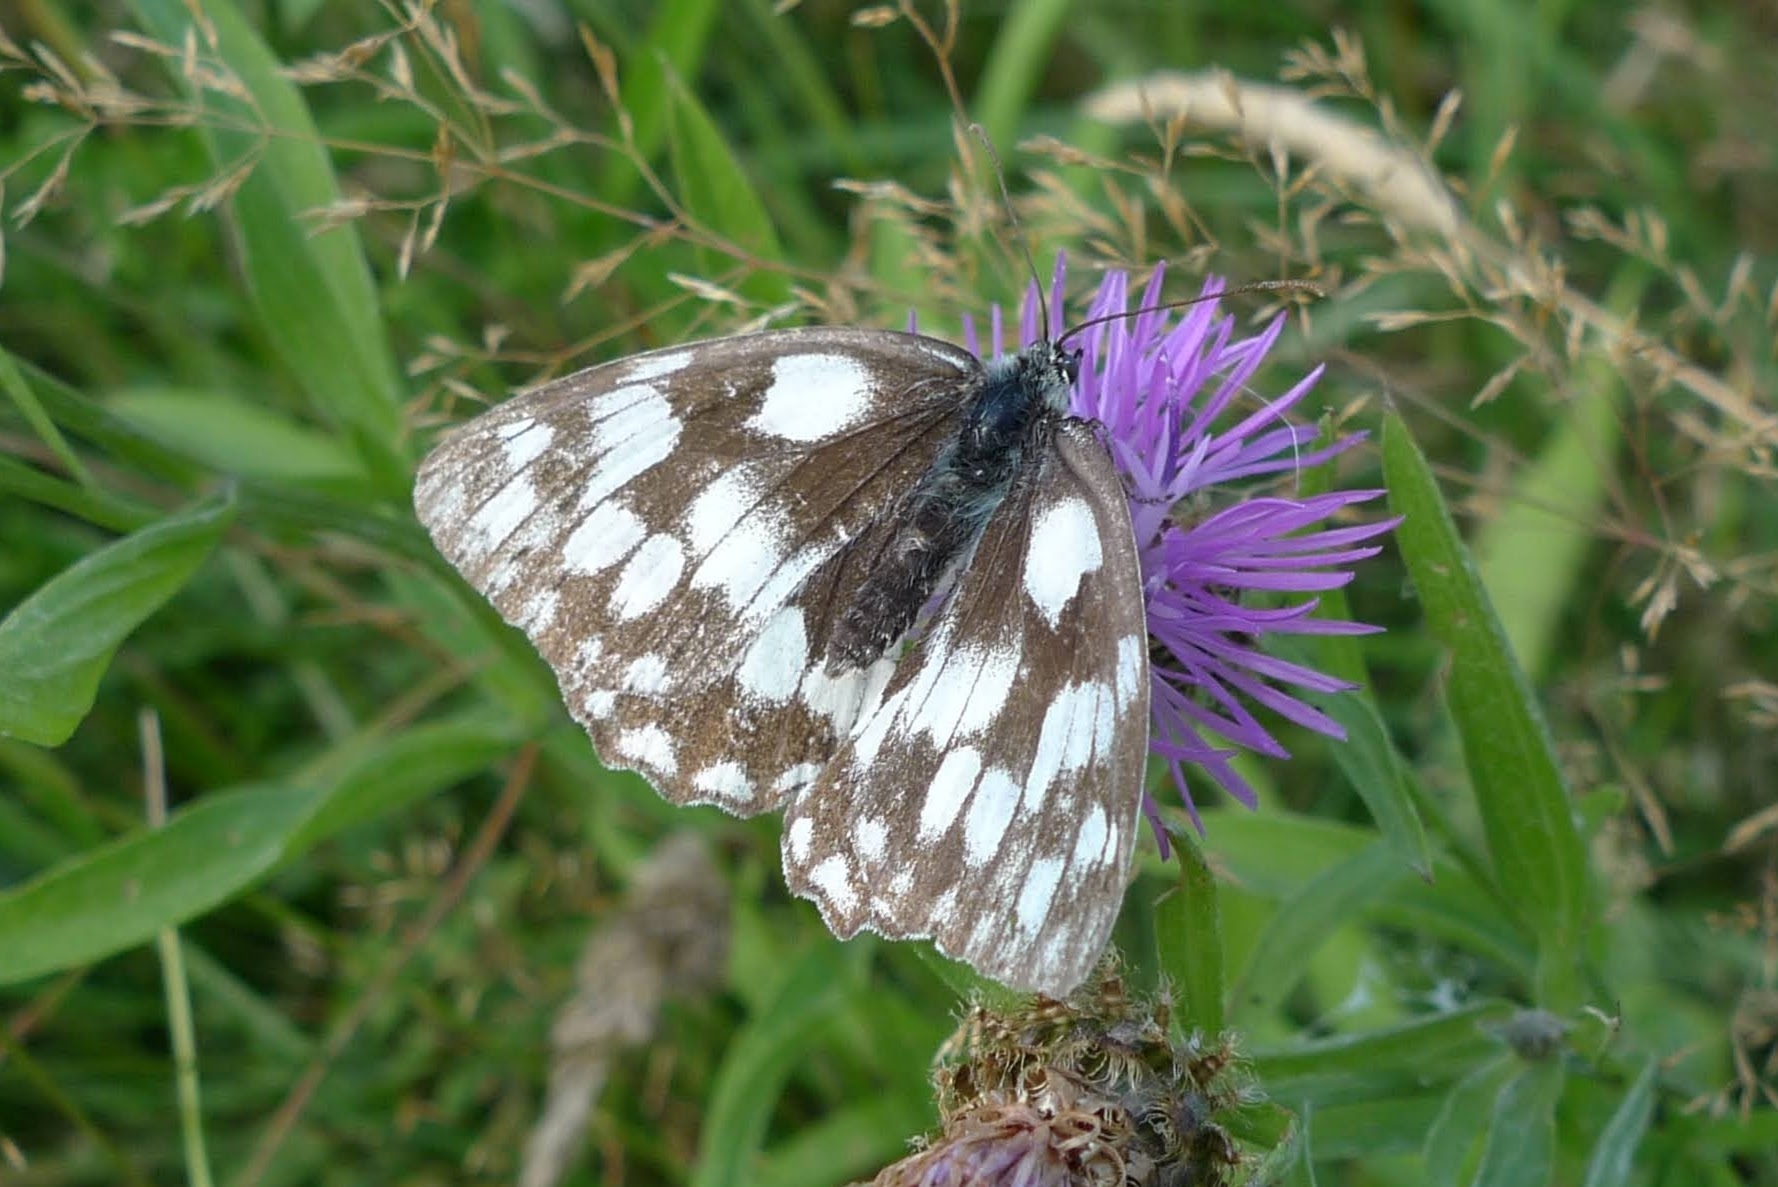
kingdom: Animalia
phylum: Arthropoda
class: Insecta
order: Lepidoptera
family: Nymphalidae
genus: Melanargia
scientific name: Melanargia galathea
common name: Marbled white
